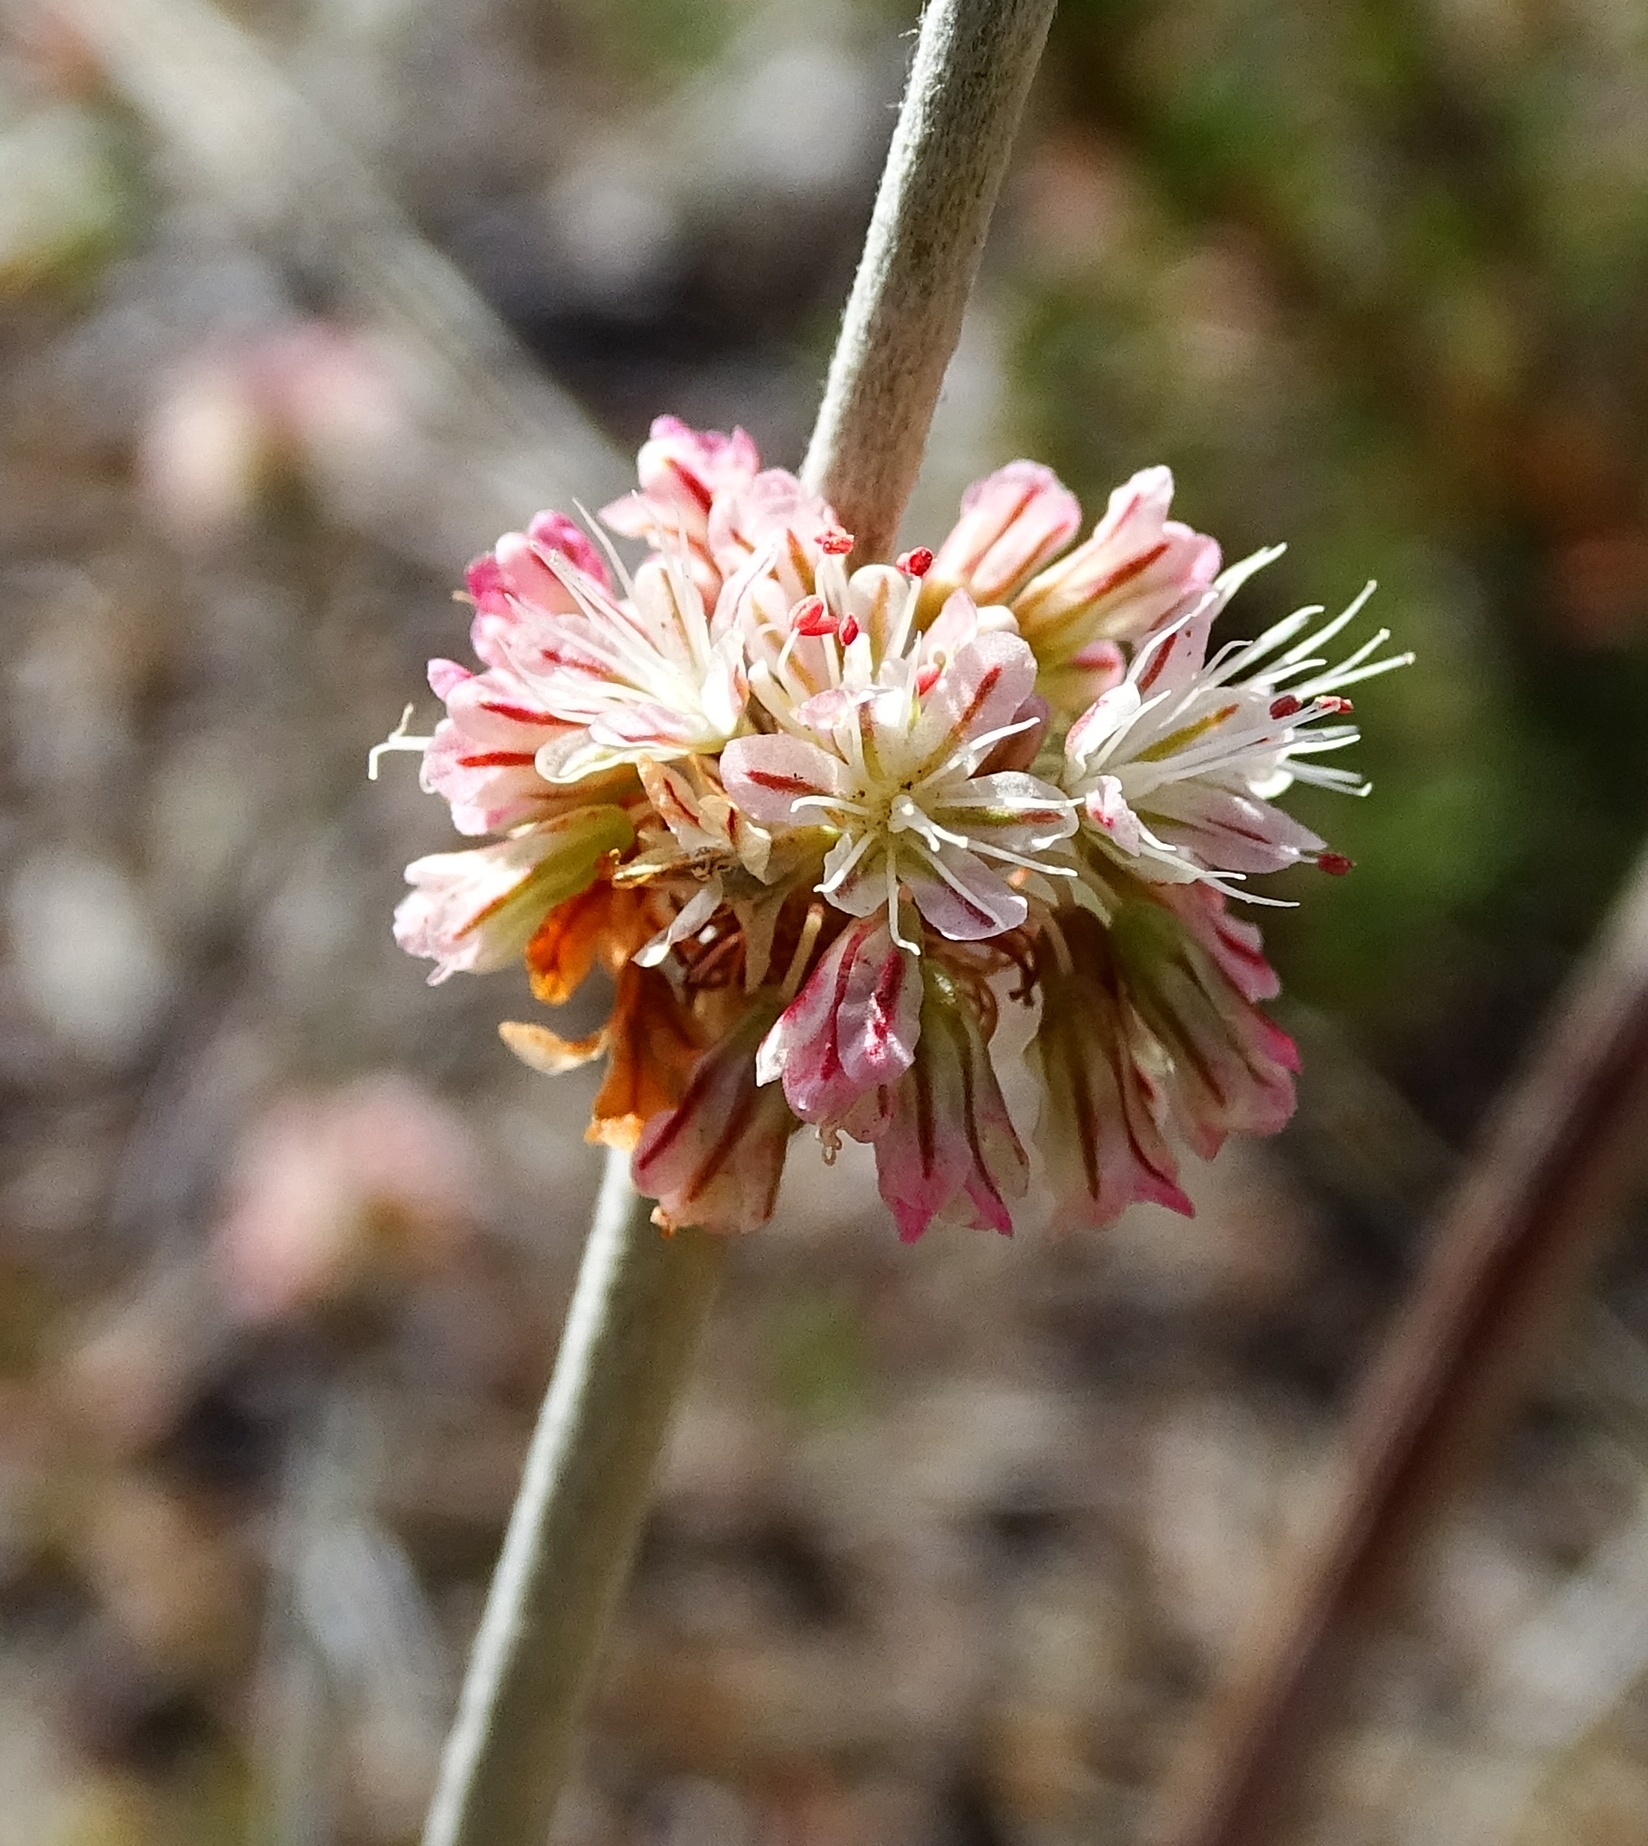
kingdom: Plantae
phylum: Tracheophyta
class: Magnoliopsida
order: Caryophyllales
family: Polygonaceae
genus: Eriogonum
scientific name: Eriogonum elongatum
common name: Long-stem wild buckwheat
